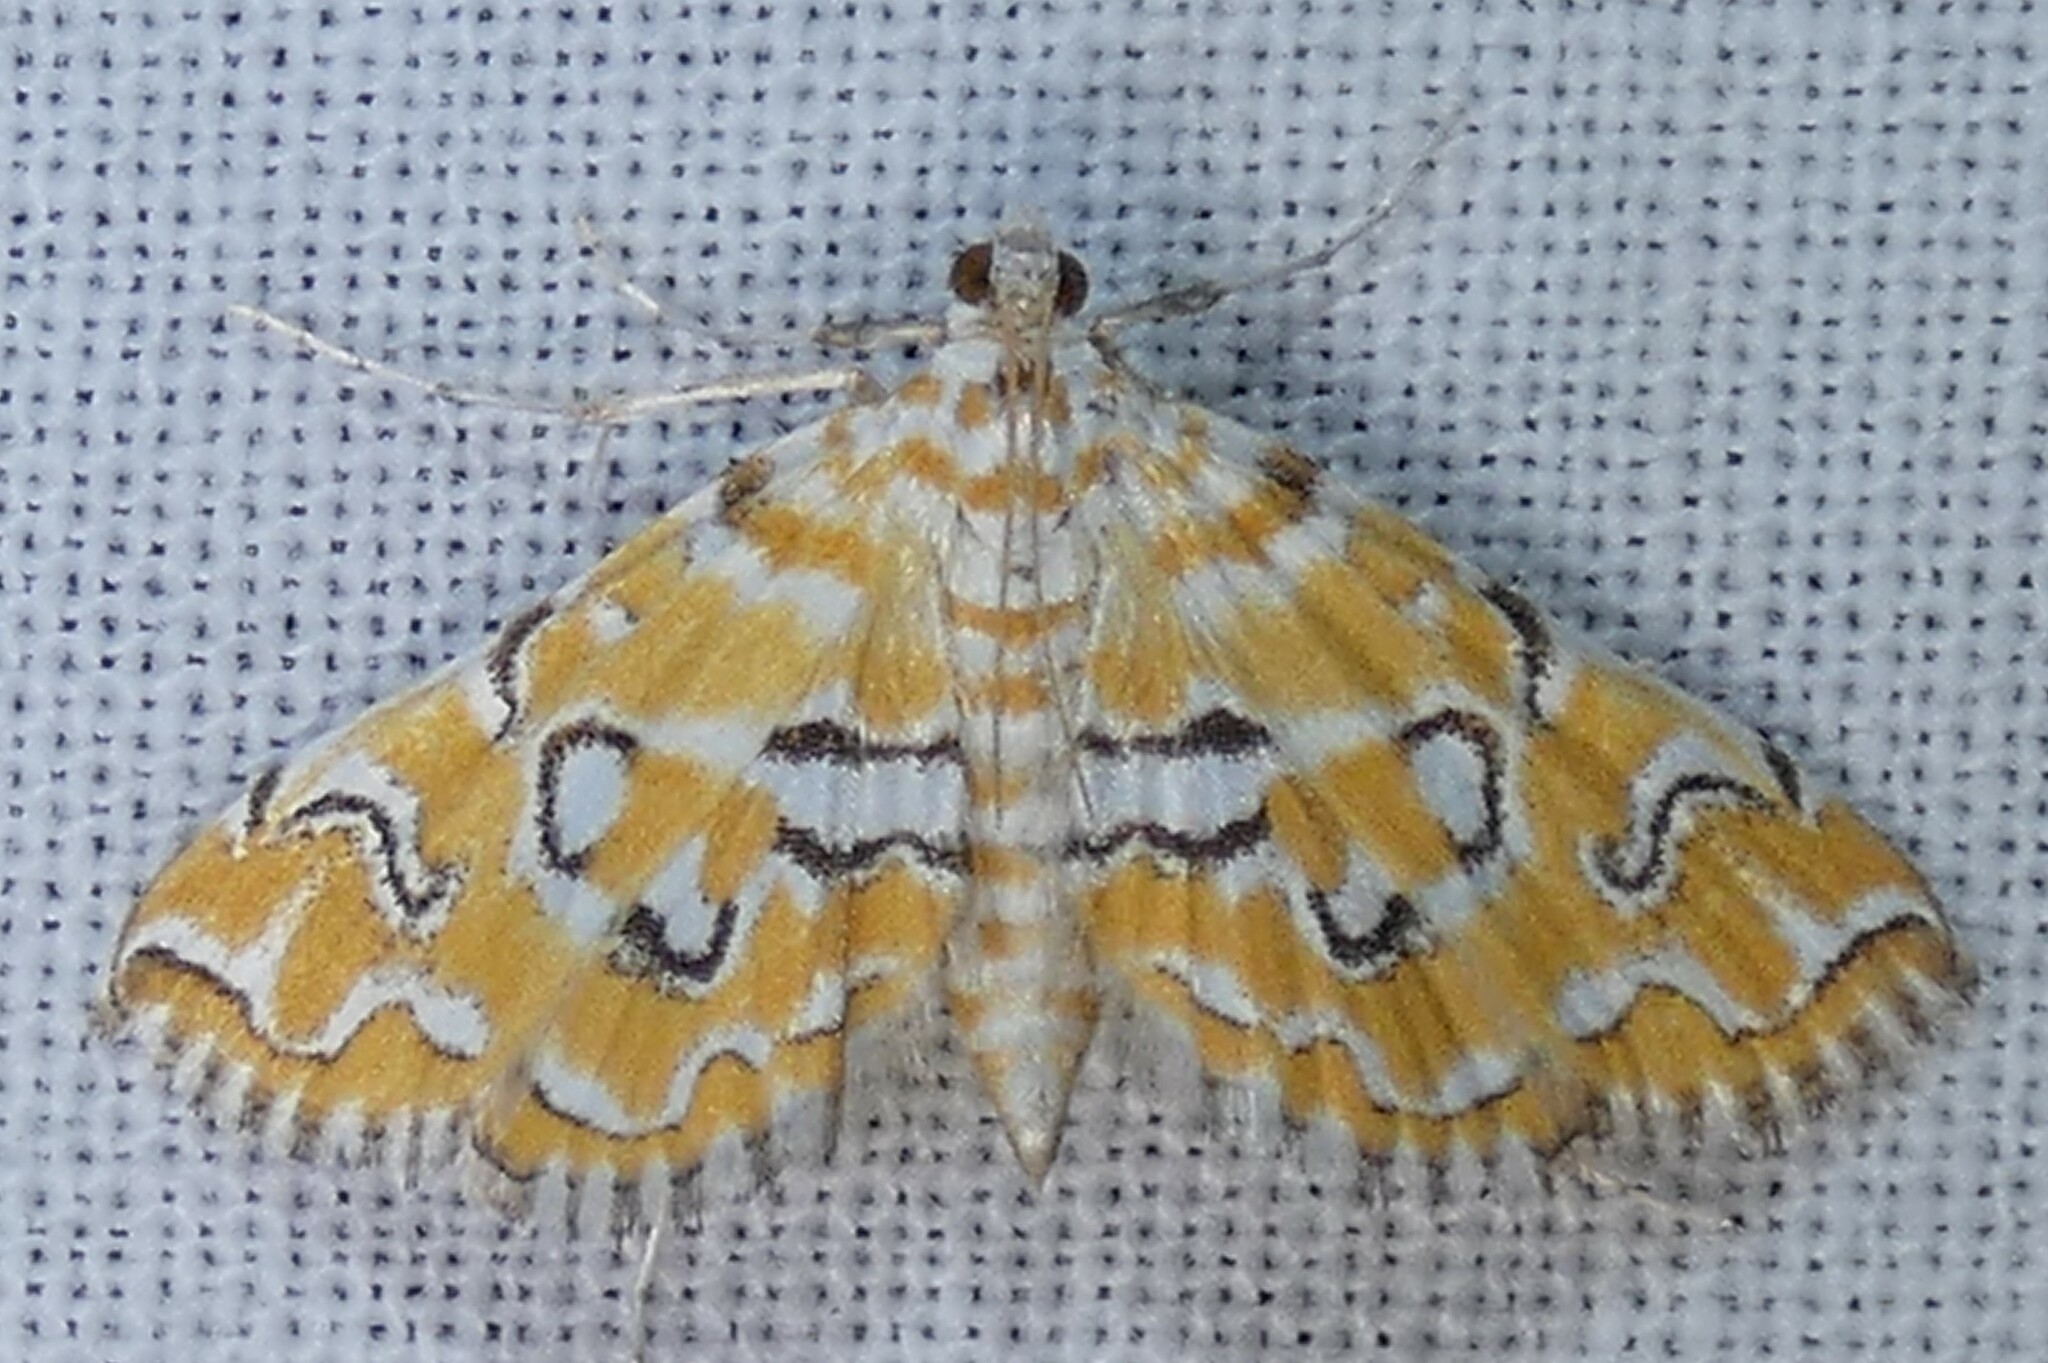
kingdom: Animalia
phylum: Arthropoda
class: Insecta
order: Lepidoptera
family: Crambidae
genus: Elophila
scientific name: Elophila icciusalis
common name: Pondside pyralid moth
